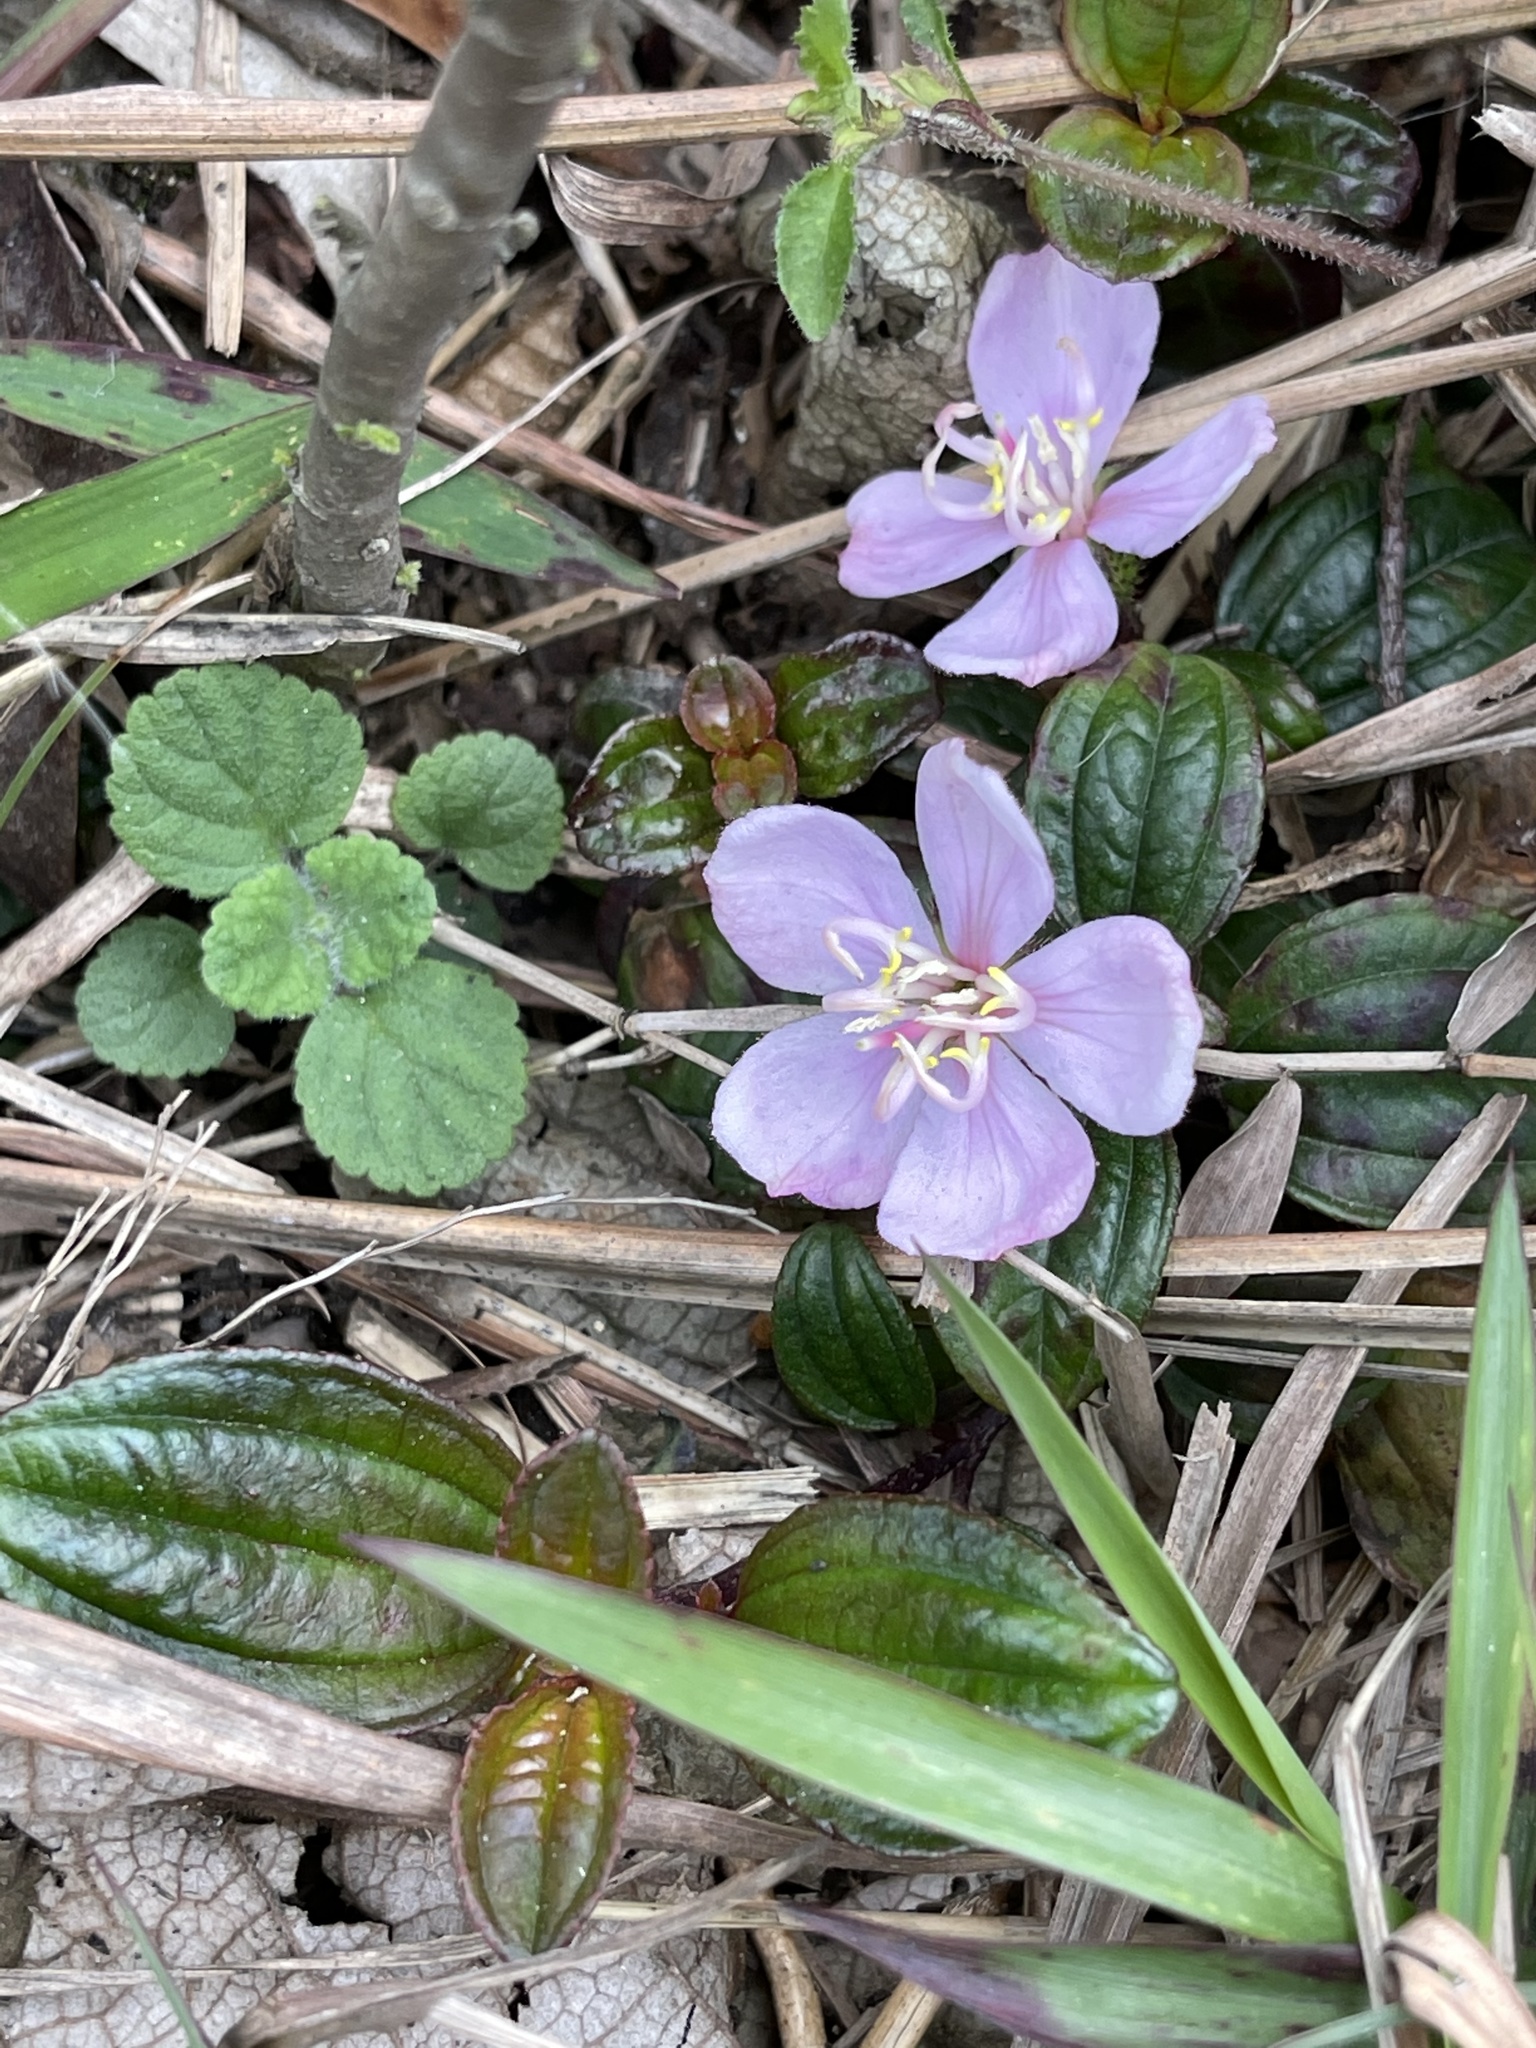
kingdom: Plantae
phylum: Tracheophyta
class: Magnoliopsida
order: Myrtales
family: Melastomataceae
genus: Melastoma
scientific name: Melastoma dodecandrum
